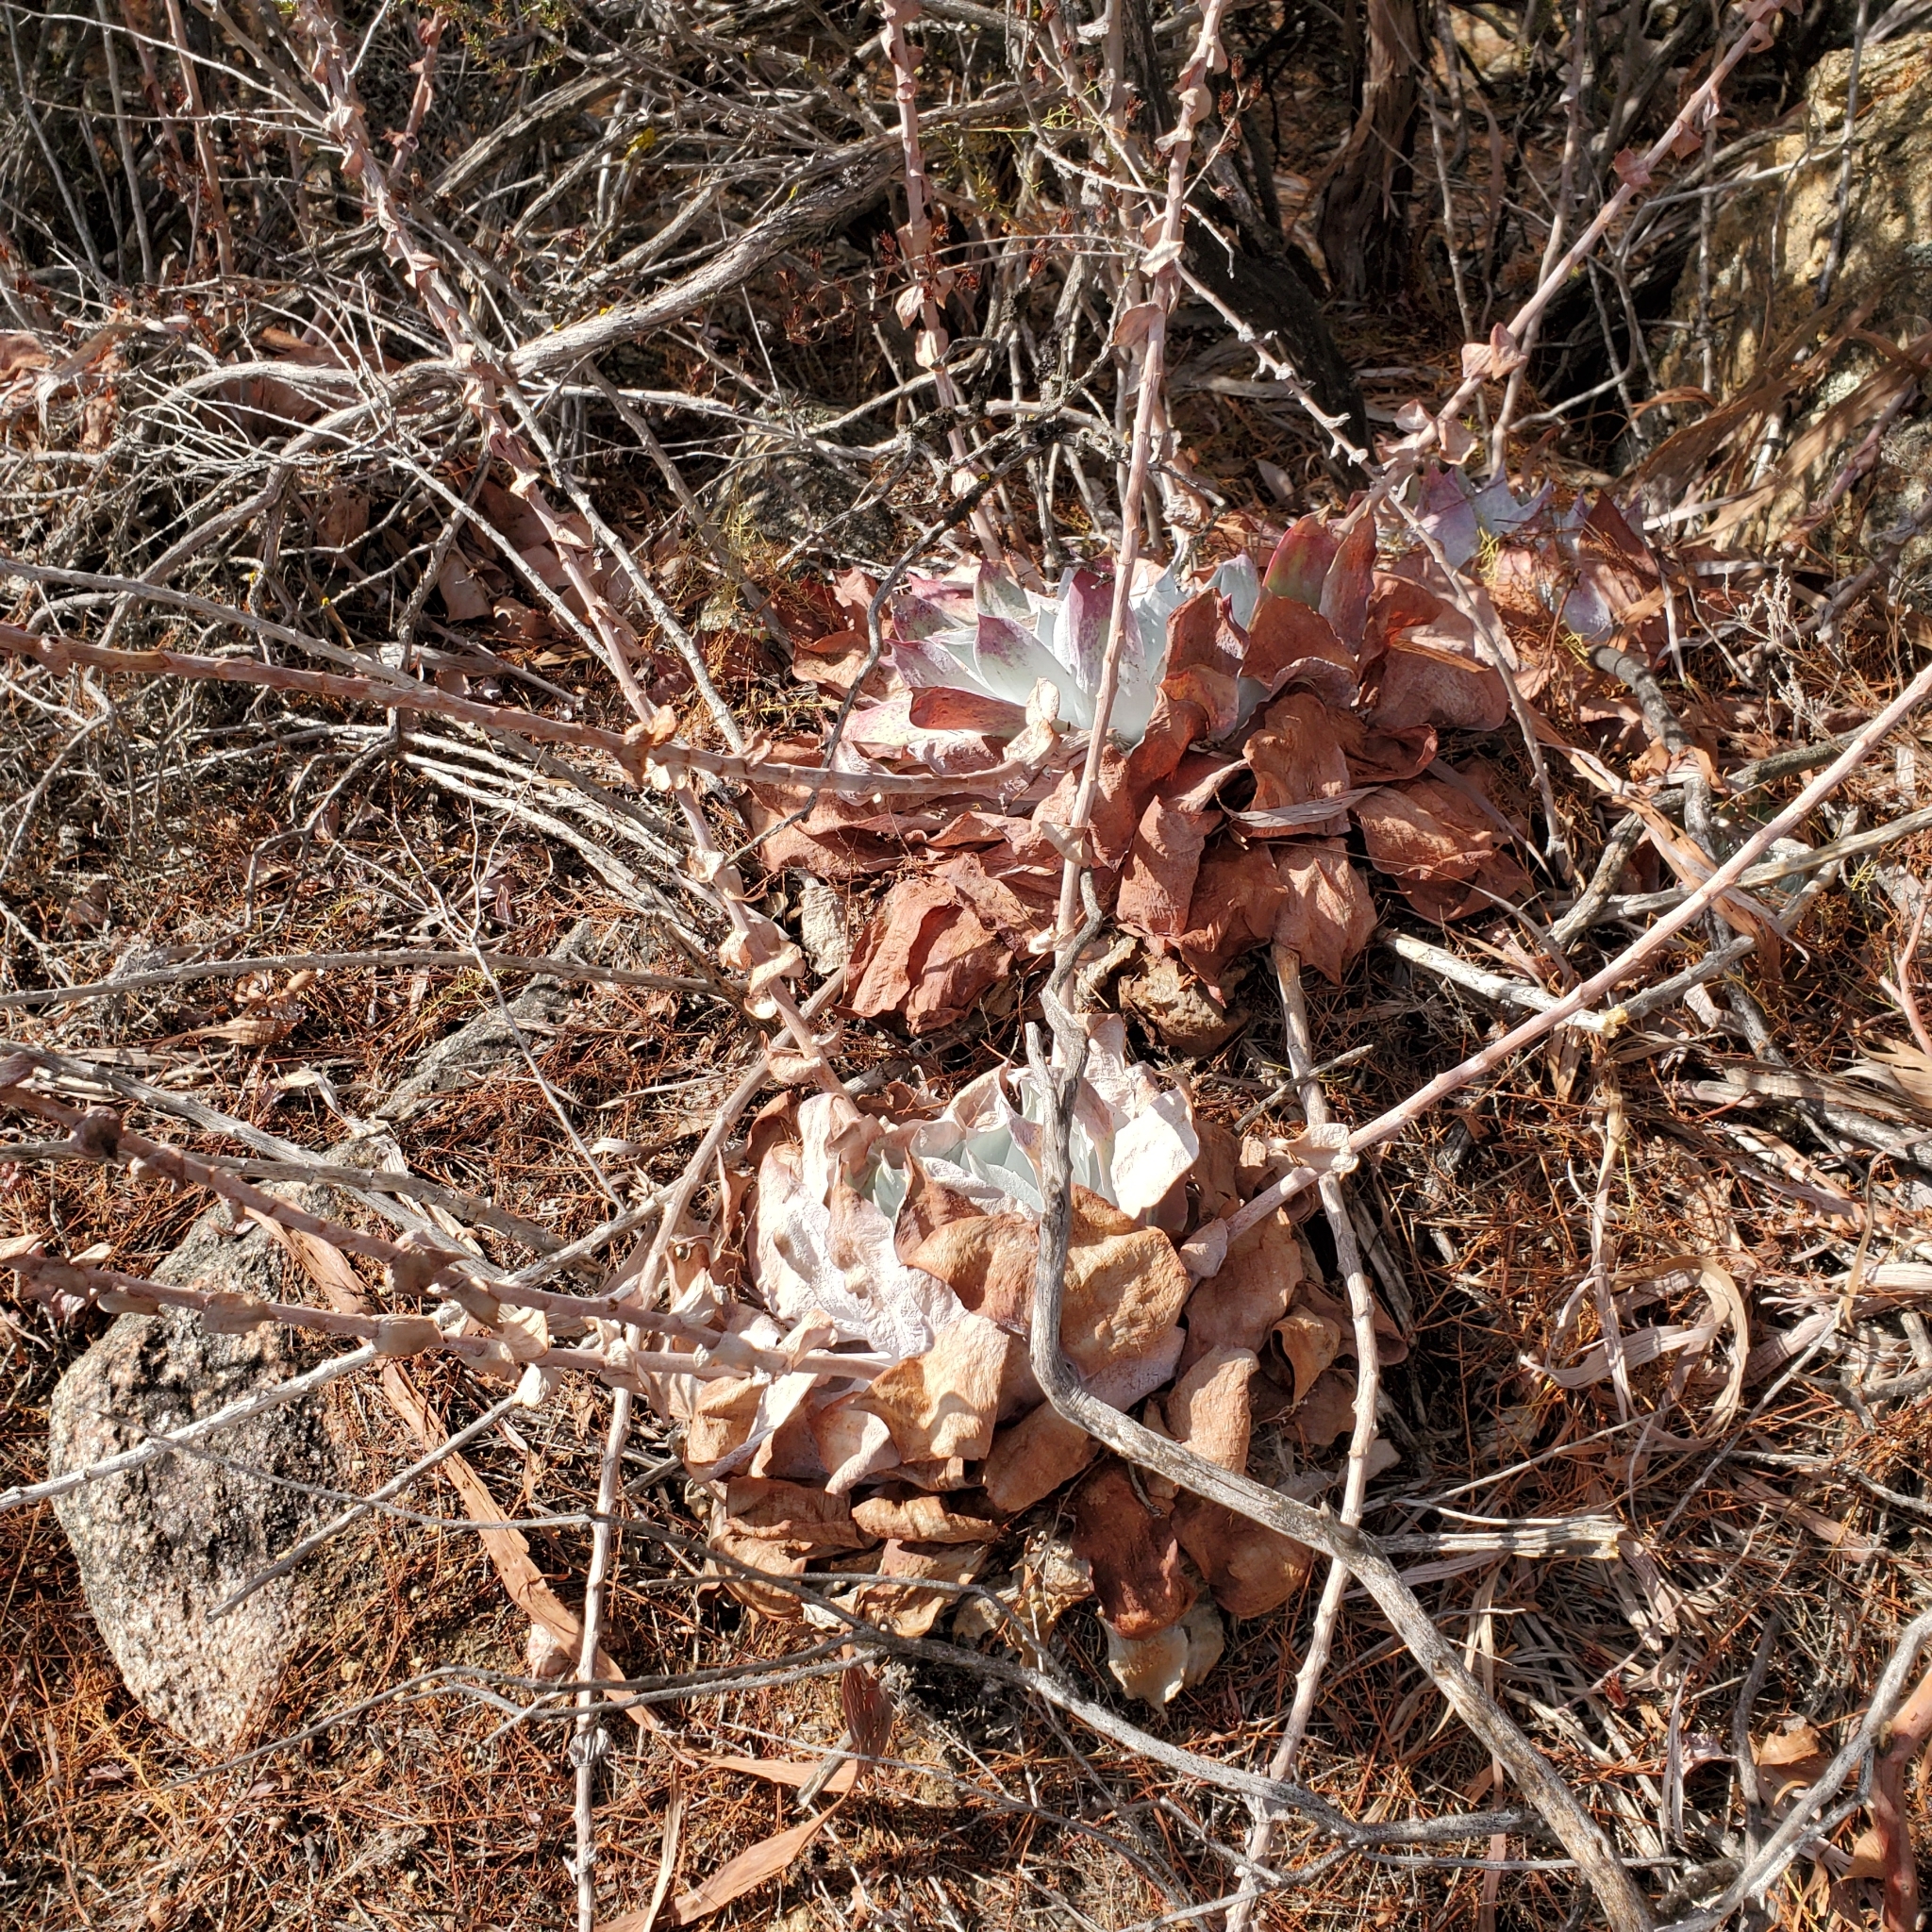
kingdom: Plantae
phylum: Tracheophyta
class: Magnoliopsida
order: Saxifragales
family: Crassulaceae
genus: Dudleya
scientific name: Dudleya pulverulenta
